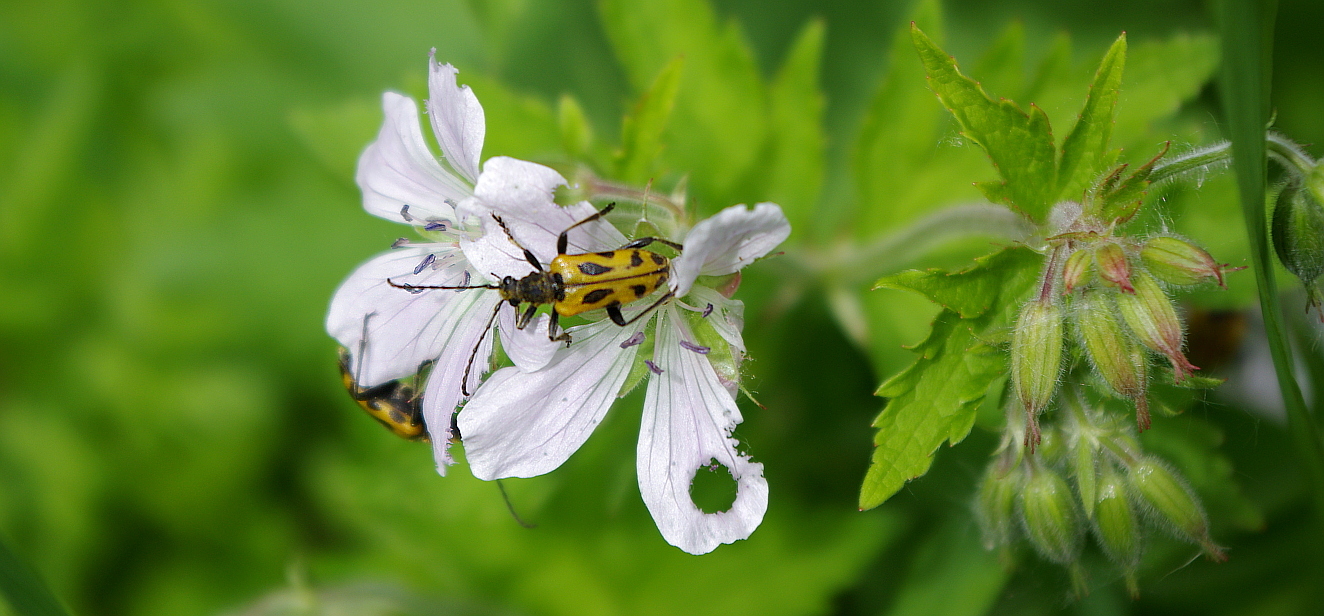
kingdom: Plantae
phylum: Tracheophyta
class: Magnoliopsida
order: Geraniales
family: Geraniaceae
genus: Geranium
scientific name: Geranium sylvaticum
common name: Wood crane's-bill
